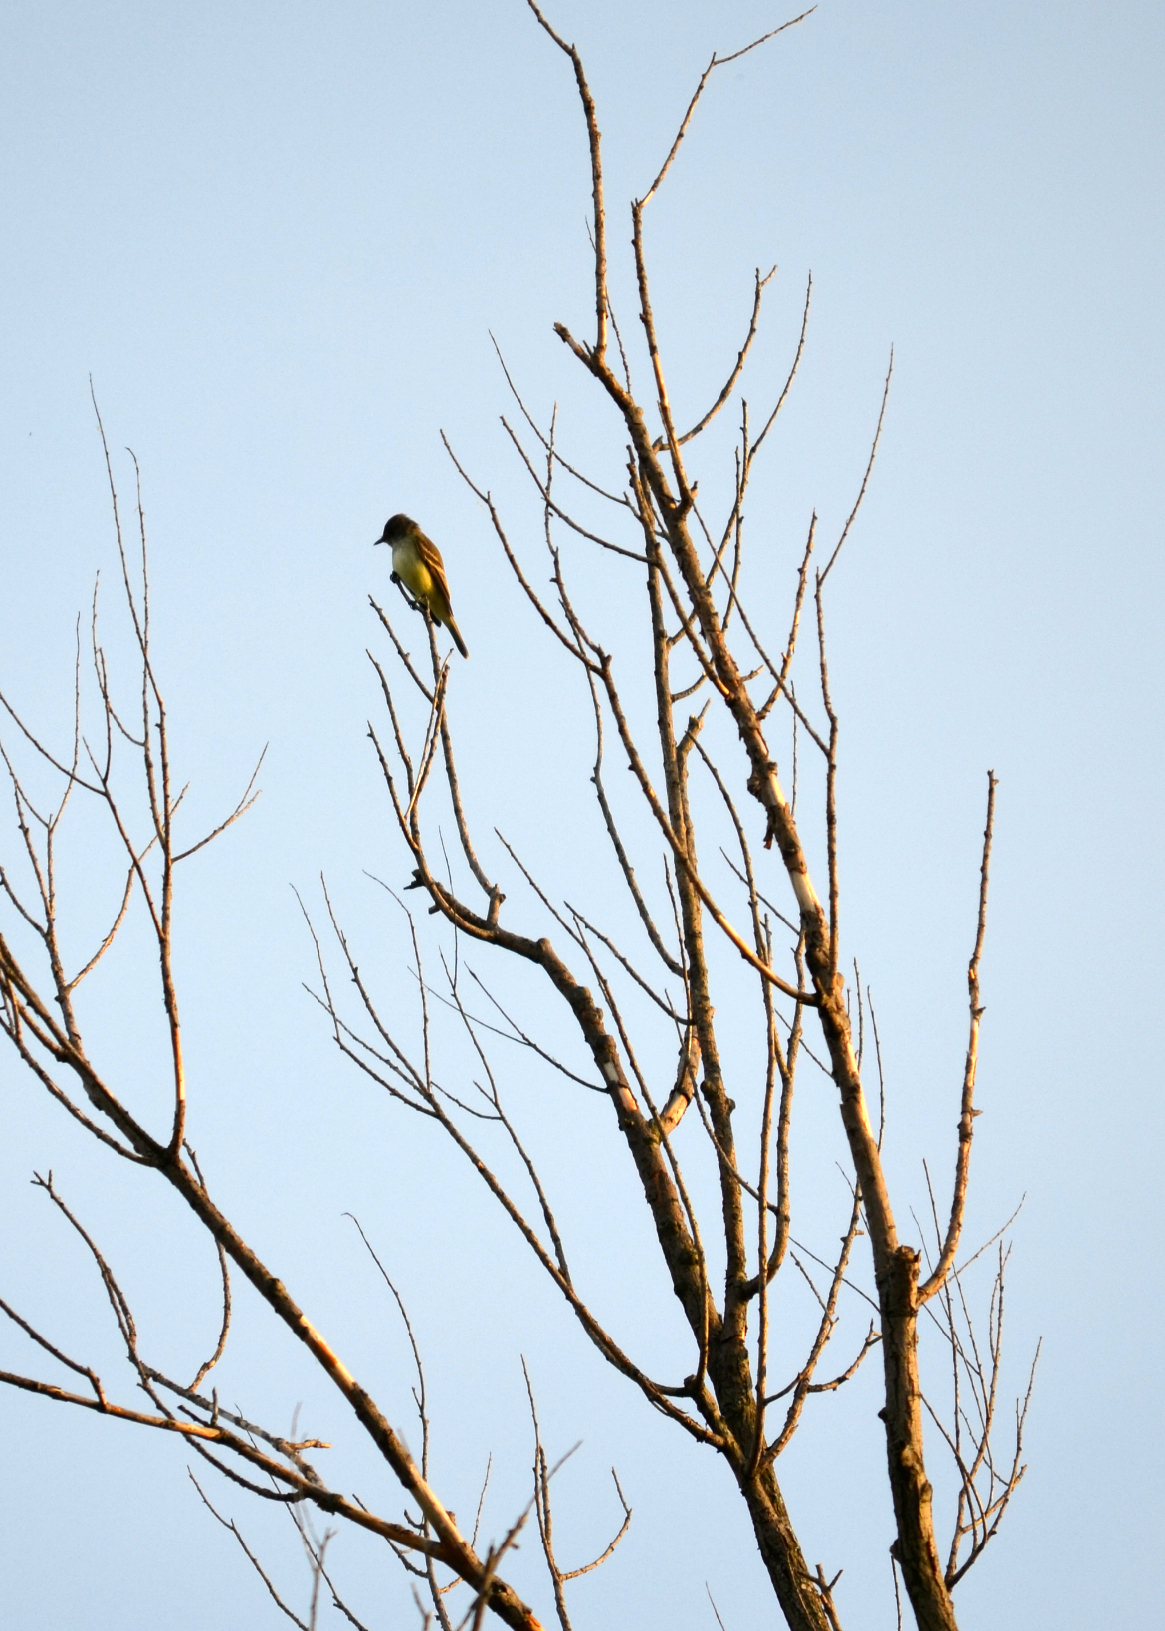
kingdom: Animalia
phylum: Chordata
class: Aves
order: Passeriformes
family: Tyrannidae
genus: Myiarchus
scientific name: Myiarchus crinitus
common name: Great crested flycatcher
